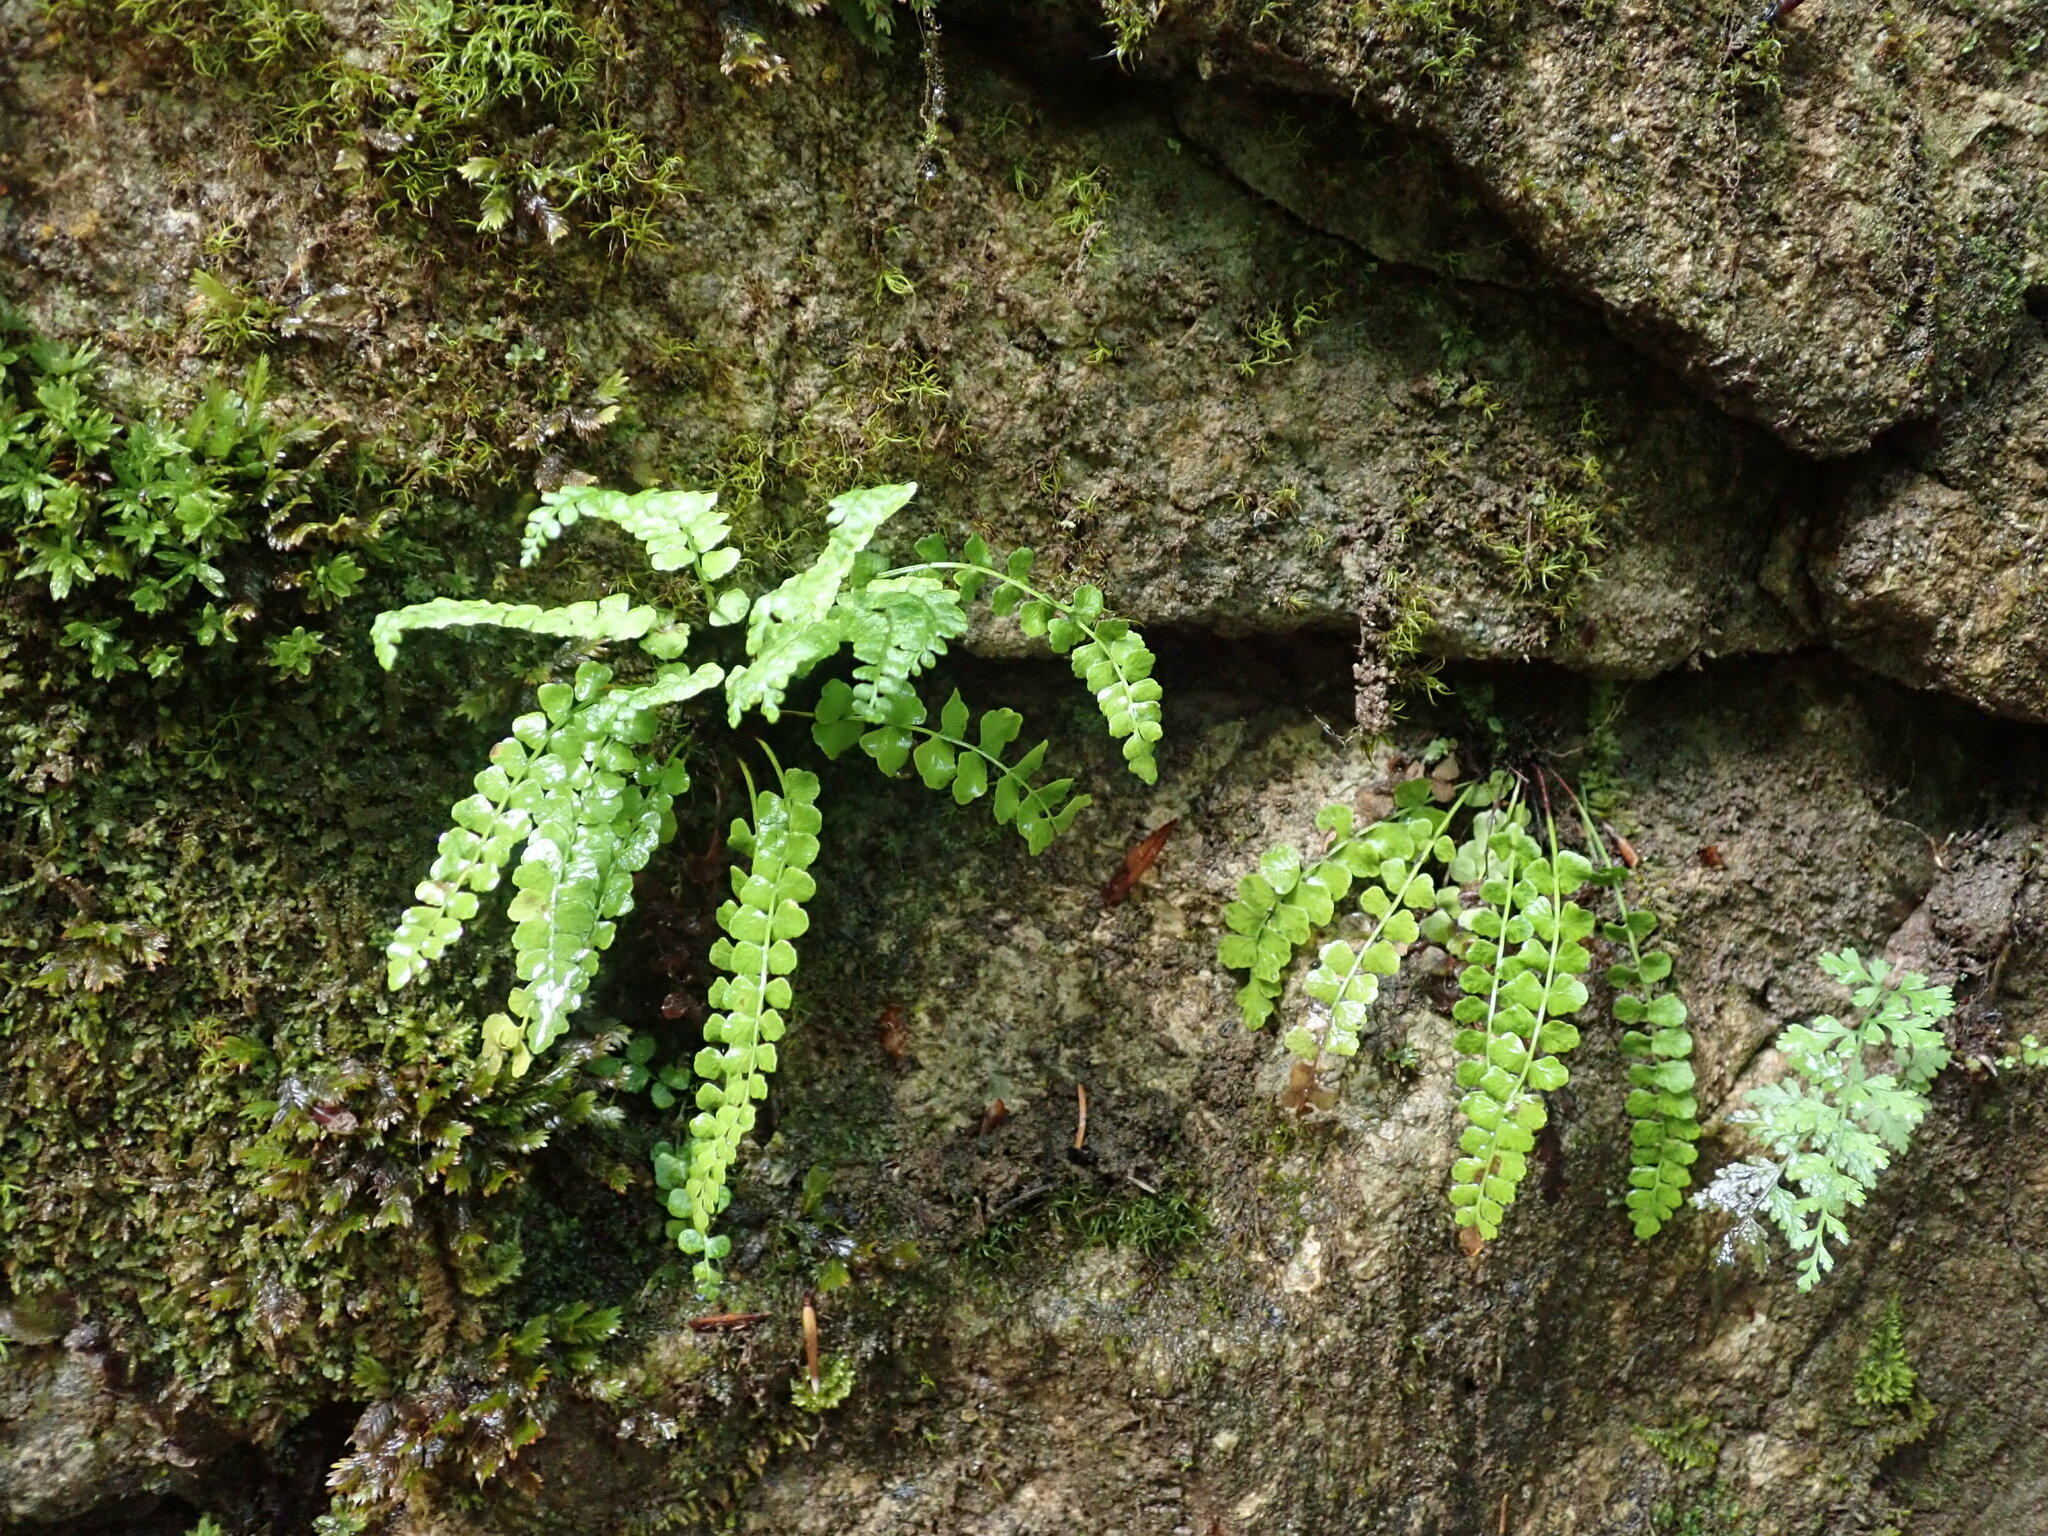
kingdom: Plantae
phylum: Tracheophyta
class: Polypodiopsida
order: Polypodiales
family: Aspleniaceae
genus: Asplenium
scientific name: Asplenium viride
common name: Green spleenwort
